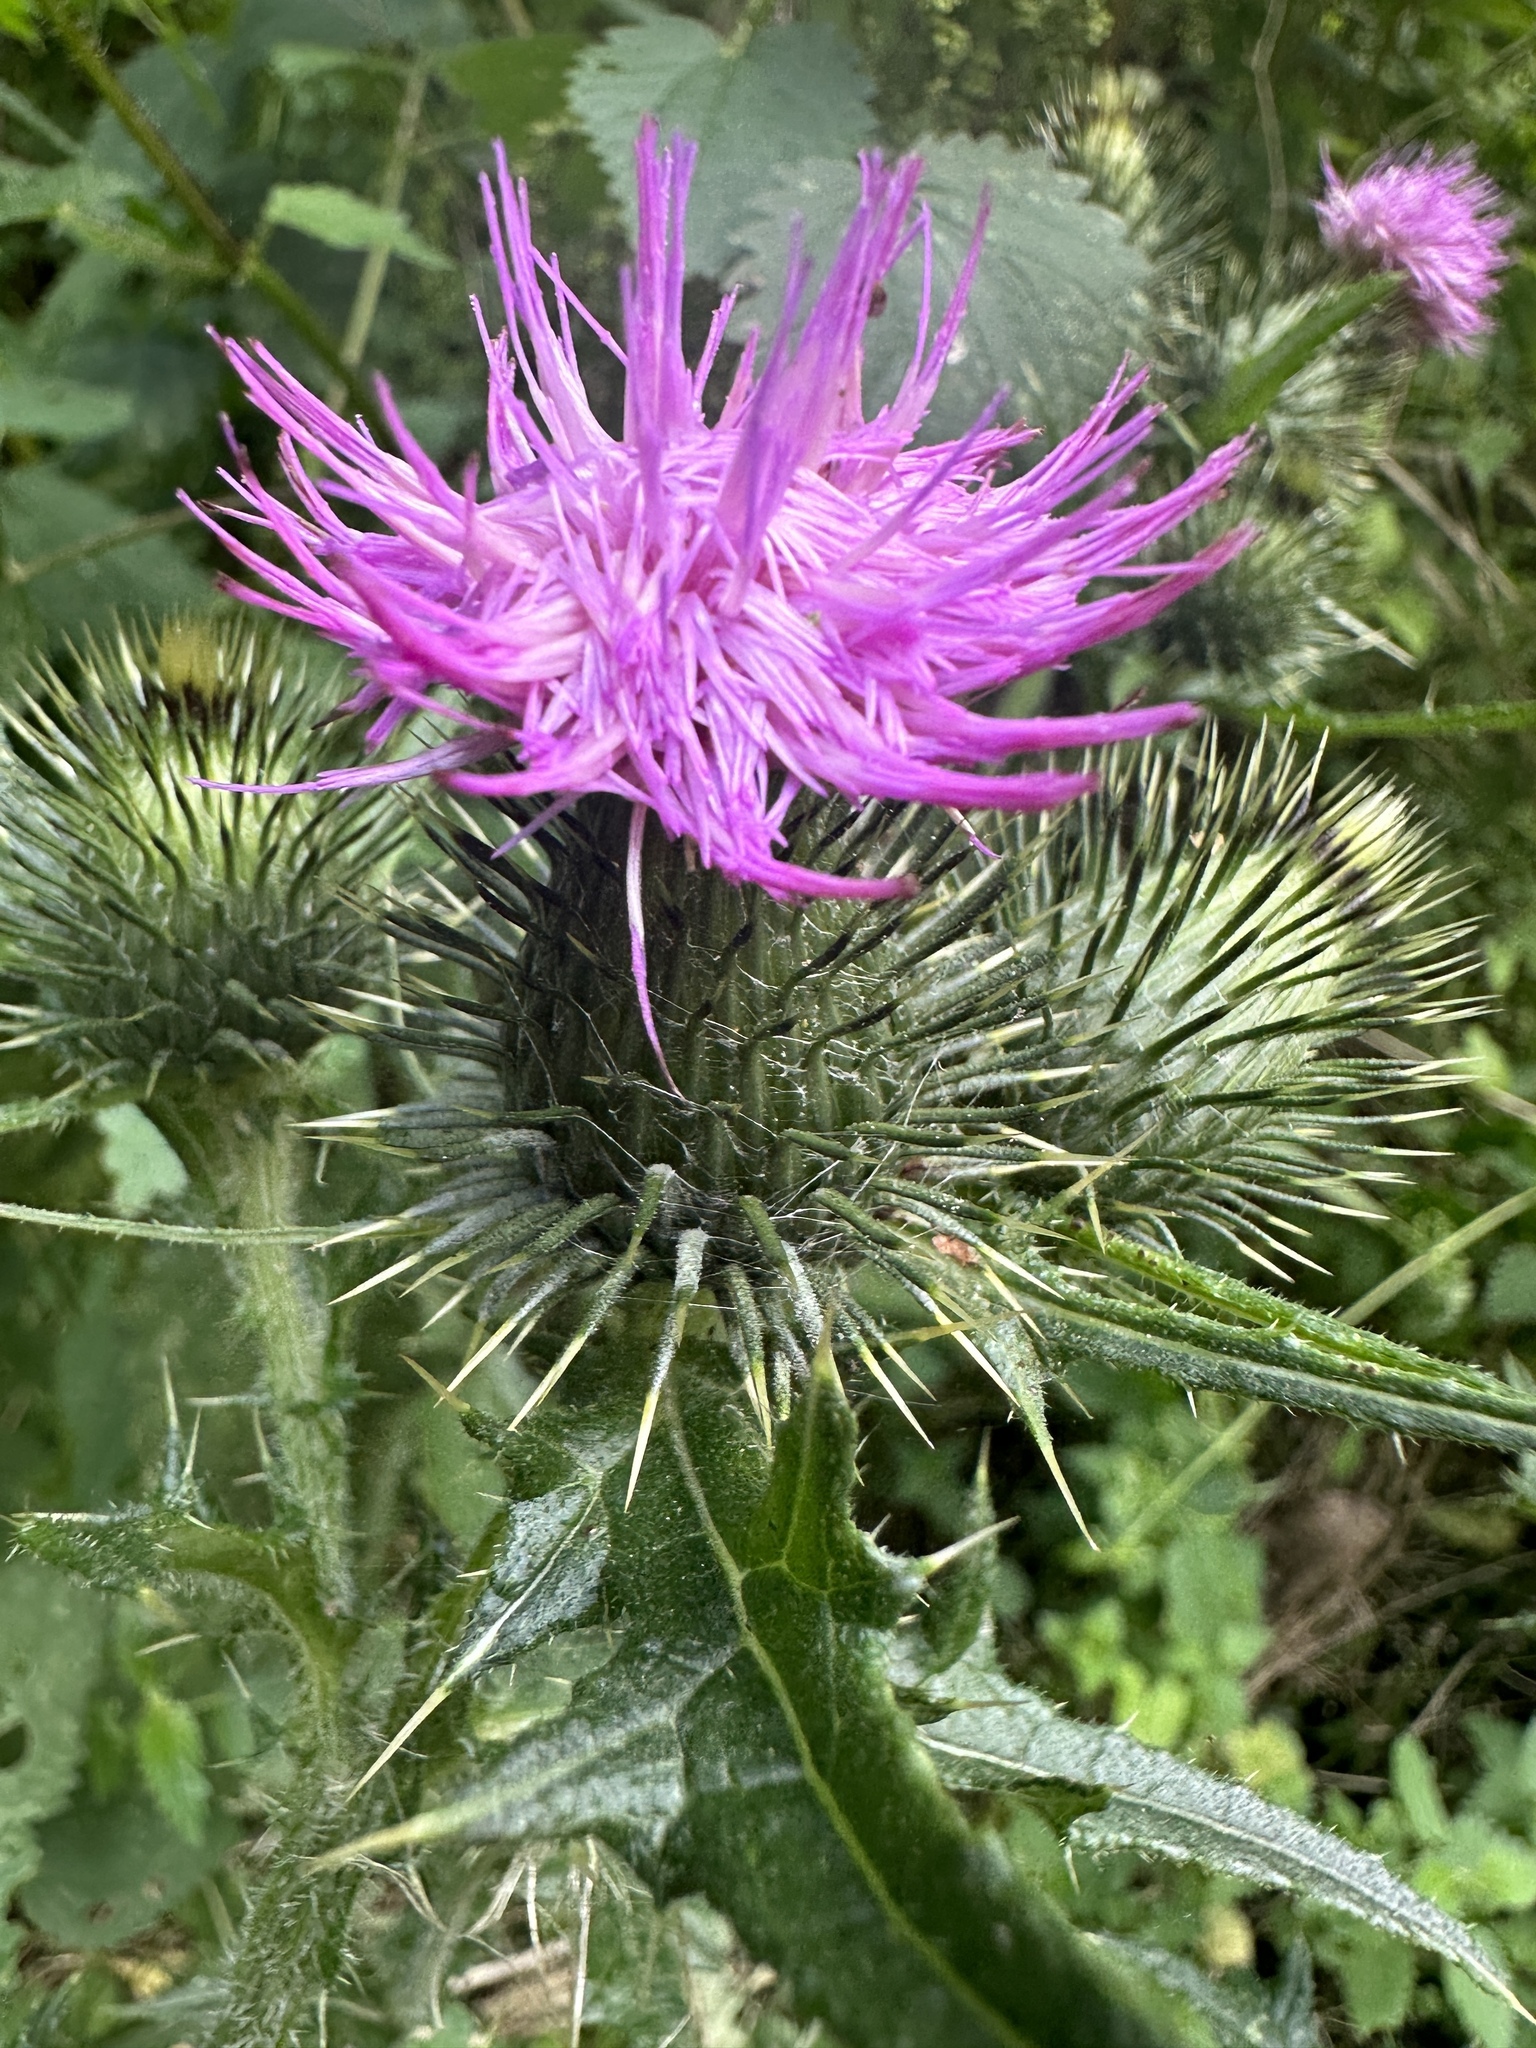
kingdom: Plantae
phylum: Tracheophyta
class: Magnoliopsida
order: Asterales
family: Asteraceae
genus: Cirsium
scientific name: Cirsium vulgare
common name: Bull thistle
